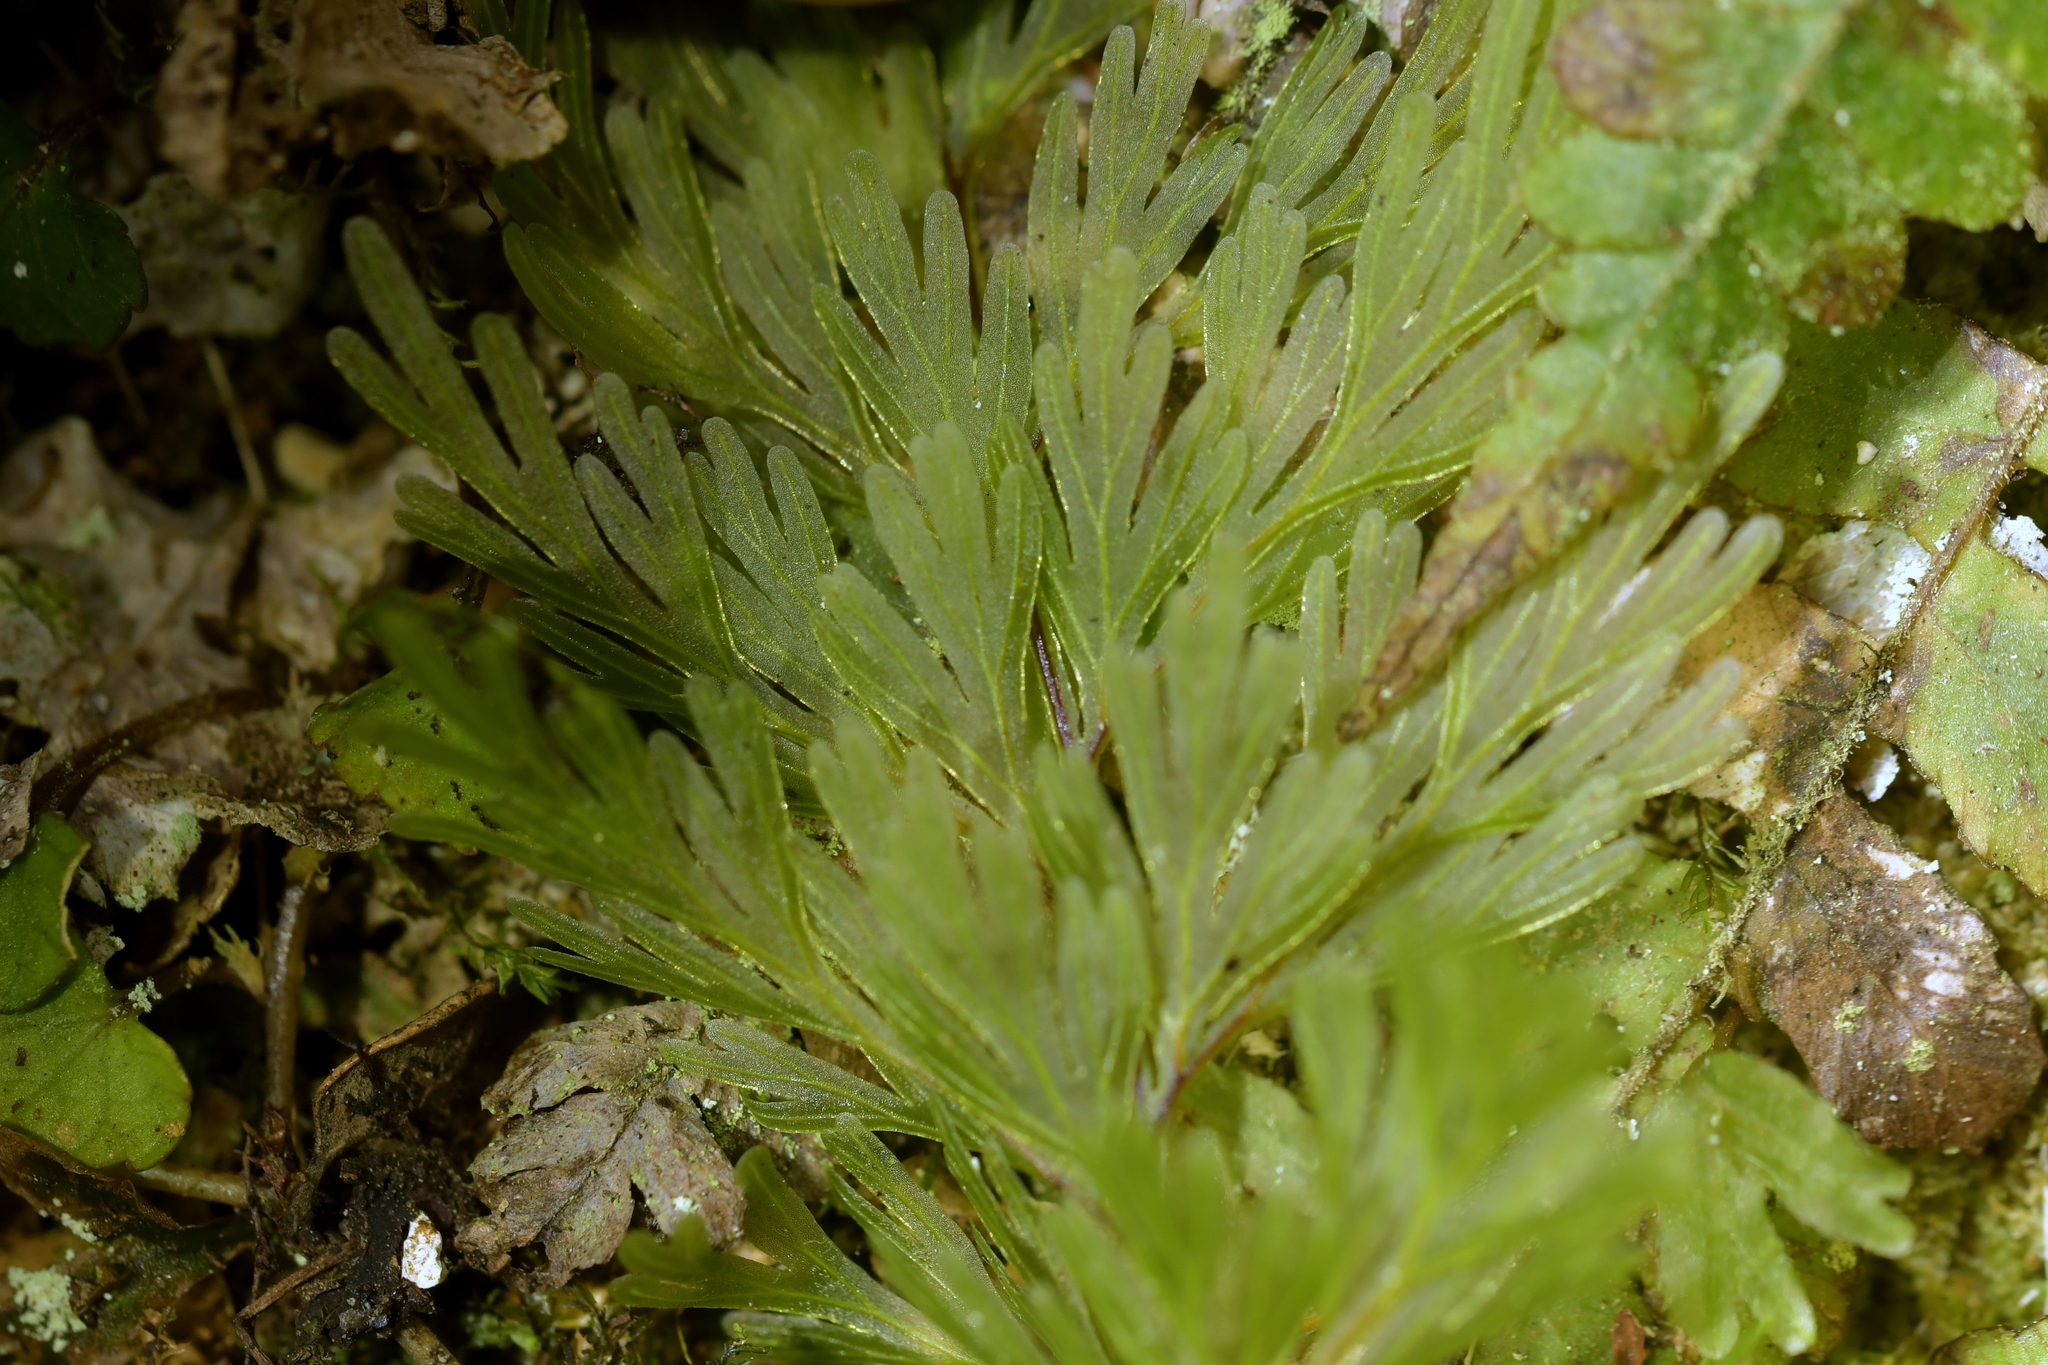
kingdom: Plantae
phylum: Tracheophyta
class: Polypodiopsida
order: Hymenophyllales
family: Hymenophyllaceae
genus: Hymenophyllum
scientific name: Hymenophyllum demissum
